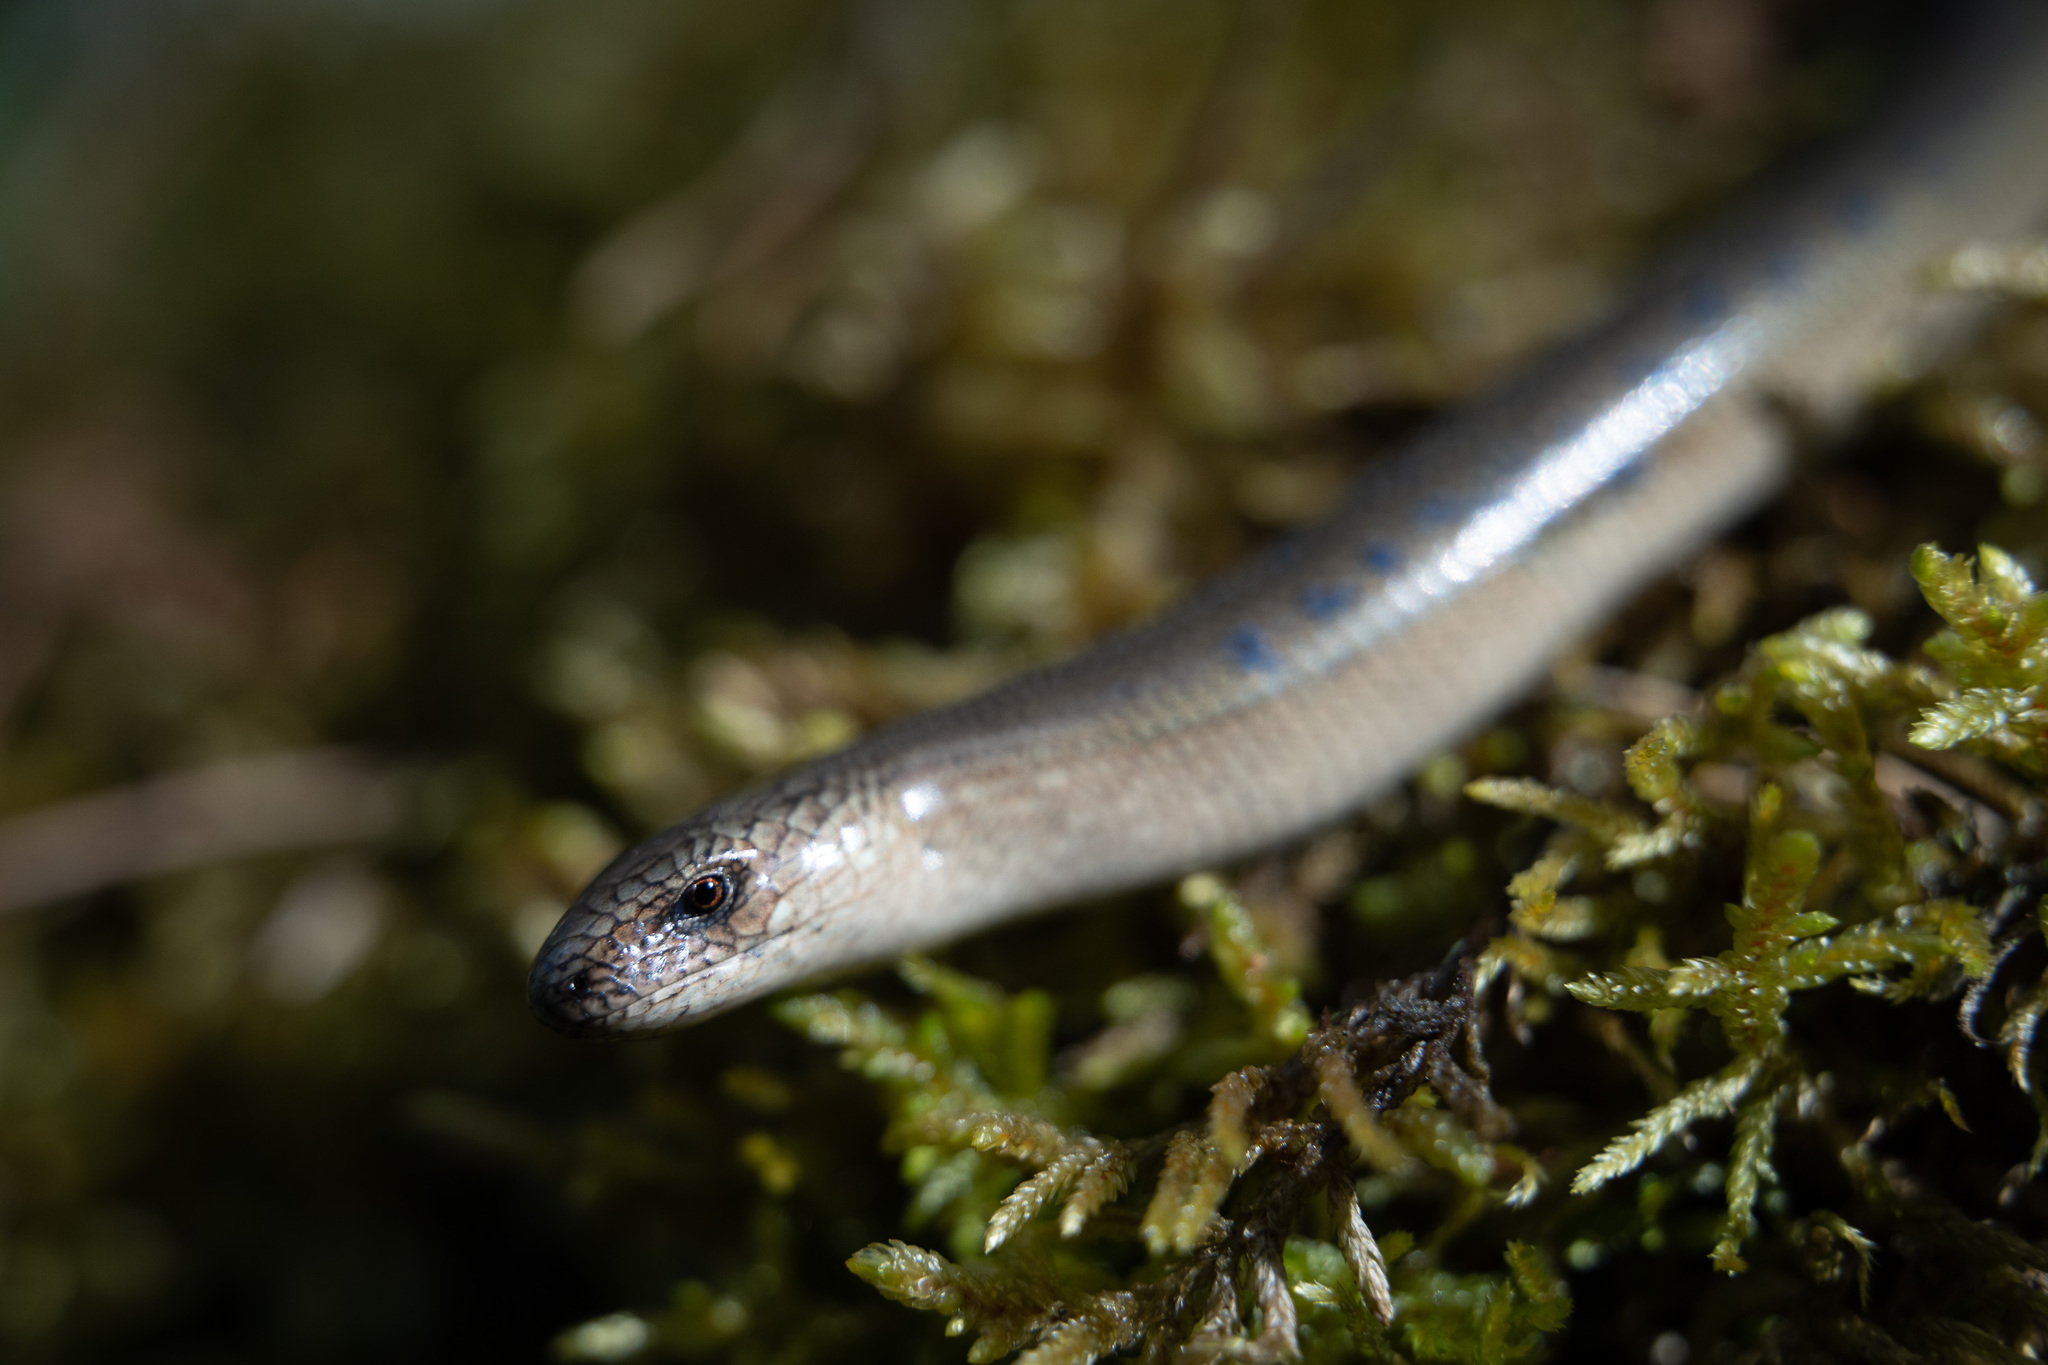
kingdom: Animalia
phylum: Chordata
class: Squamata
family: Anguidae
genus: Anguis
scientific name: Anguis colchica
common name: Slow worm
